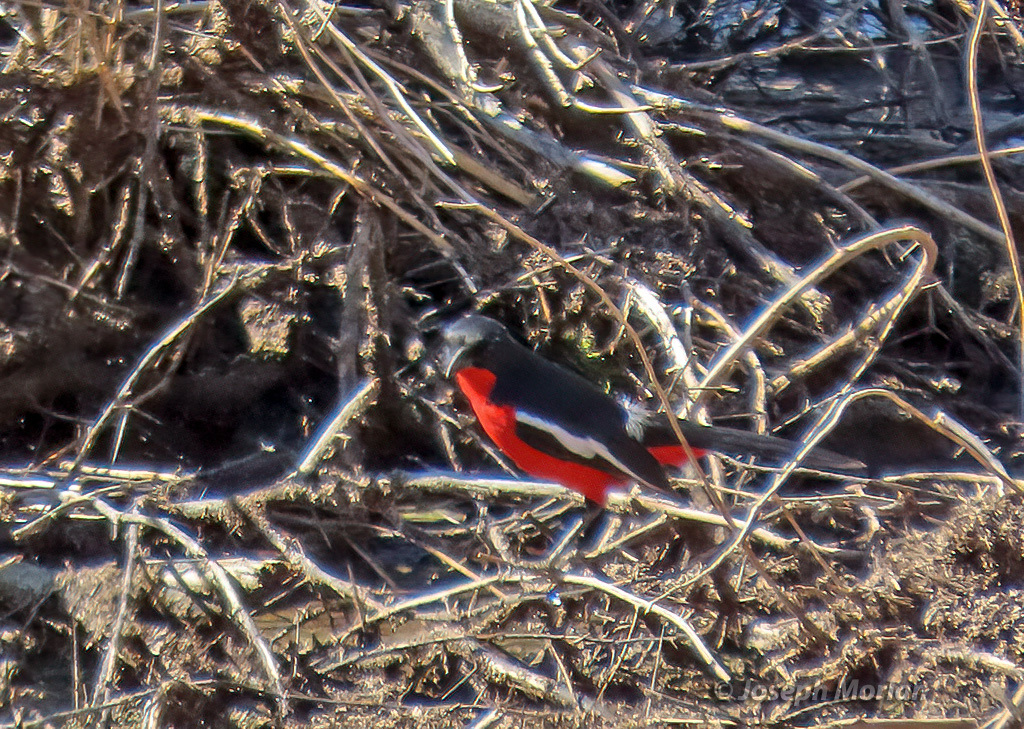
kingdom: Animalia
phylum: Chordata
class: Aves
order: Passeriformes
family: Malaconotidae
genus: Laniarius
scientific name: Laniarius atrococcineus
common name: Crimson-breasted shrike
